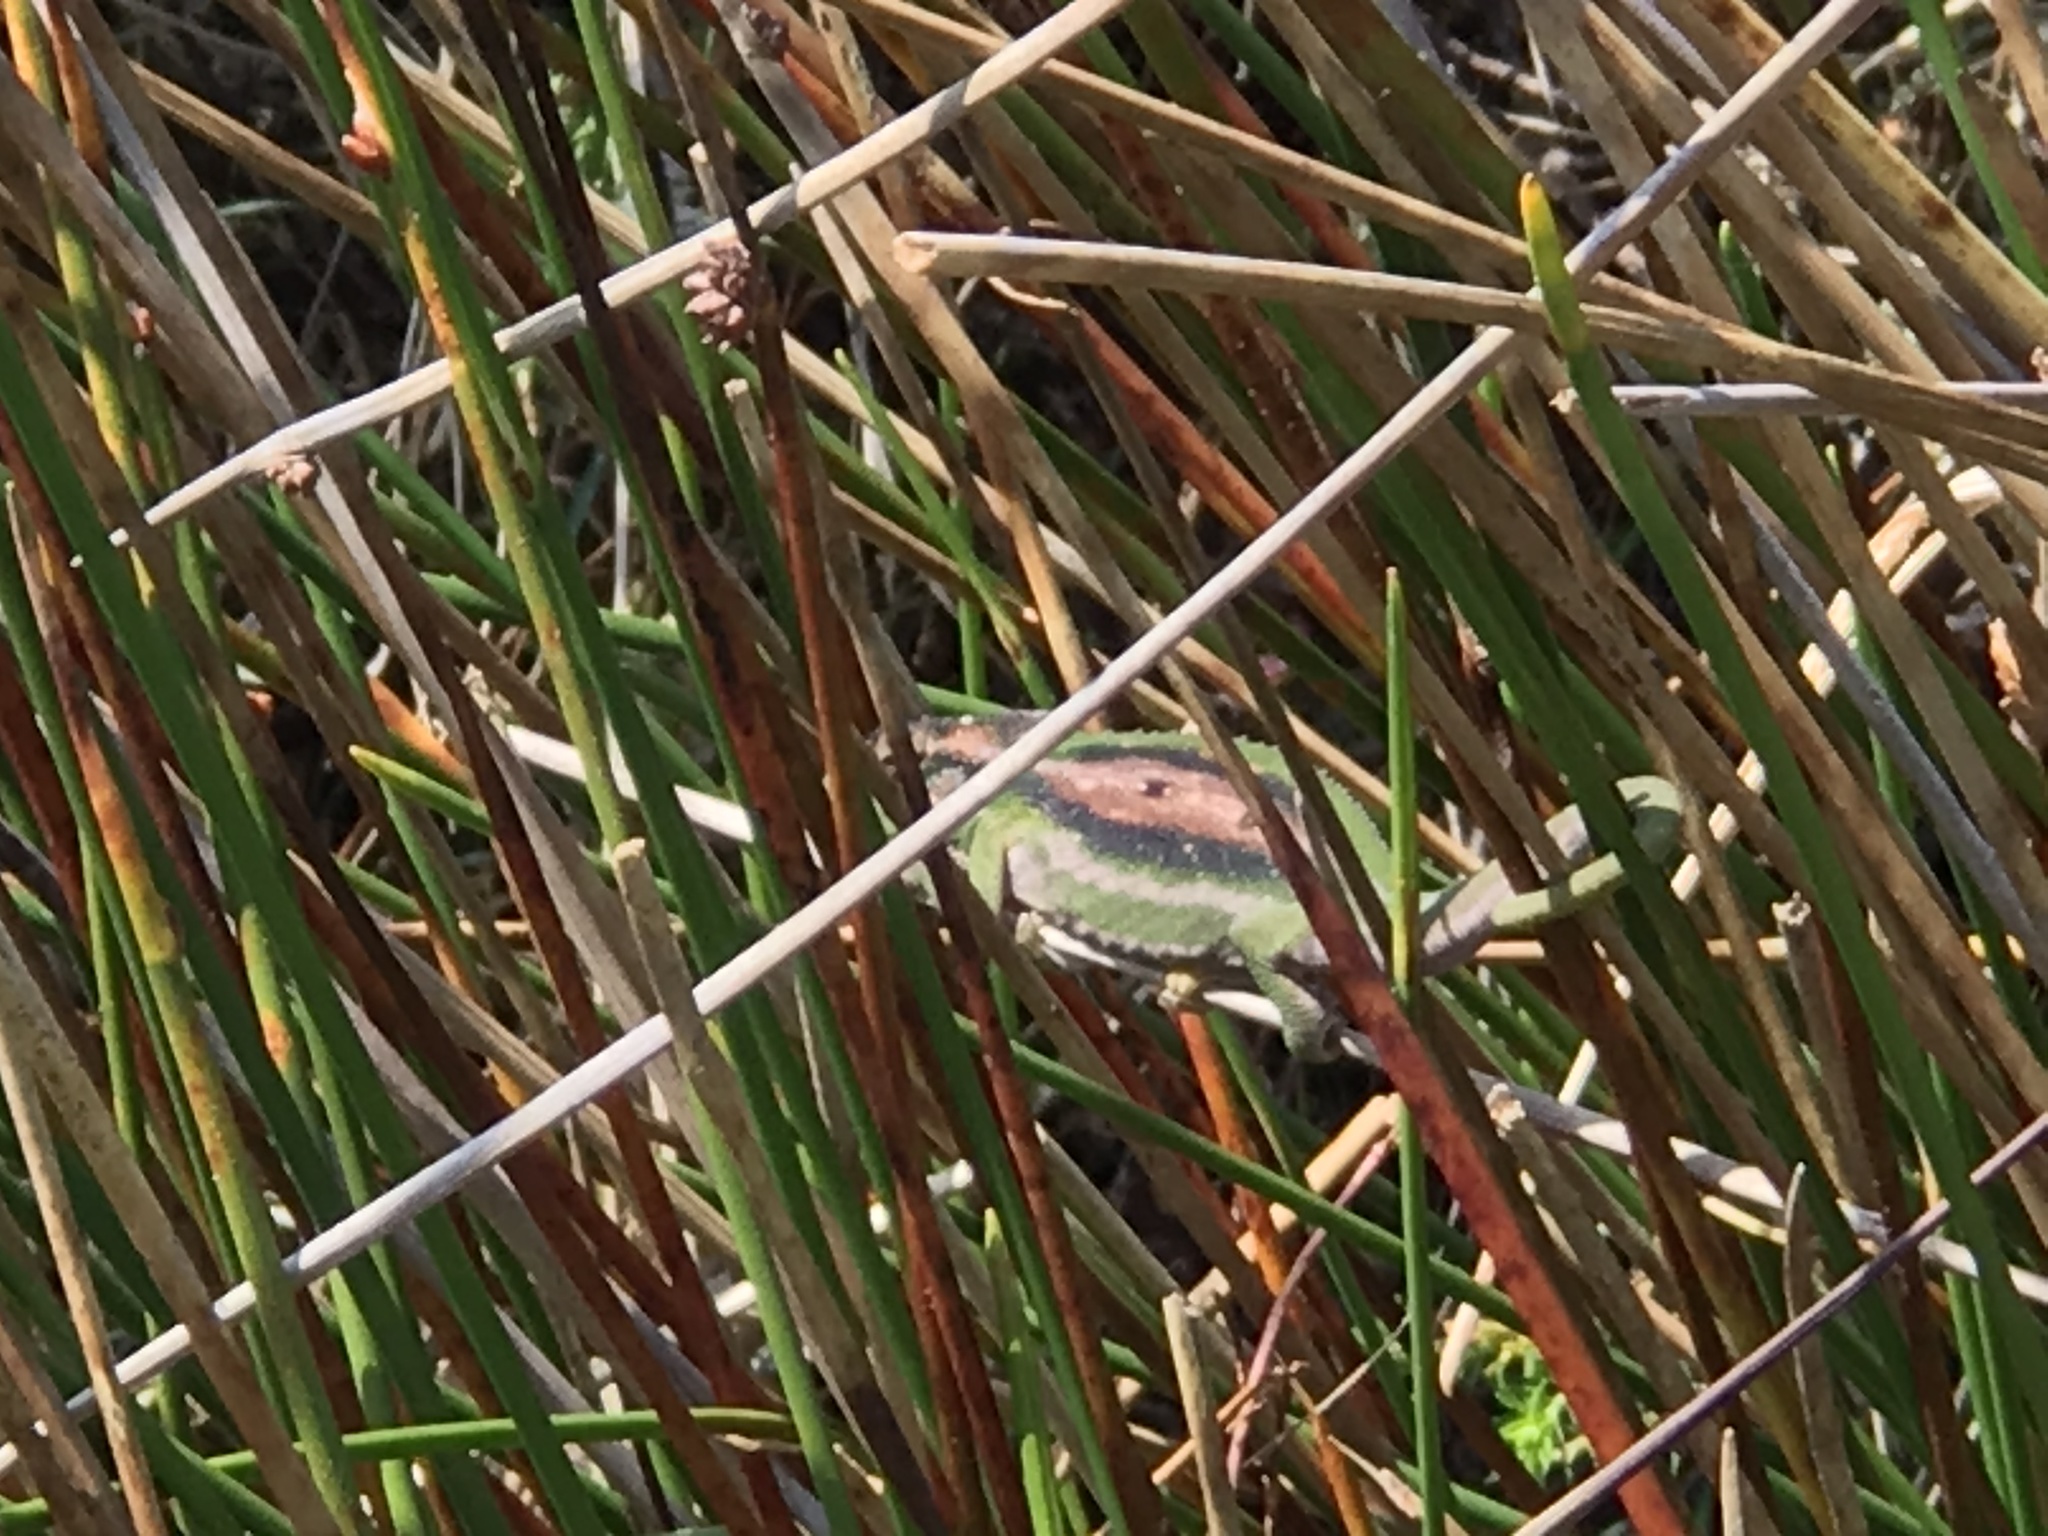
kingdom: Animalia
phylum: Chordata
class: Squamata
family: Chamaeleonidae
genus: Bradypodion
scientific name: Bradypodion pumilum
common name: Cape dwarf chameleon
